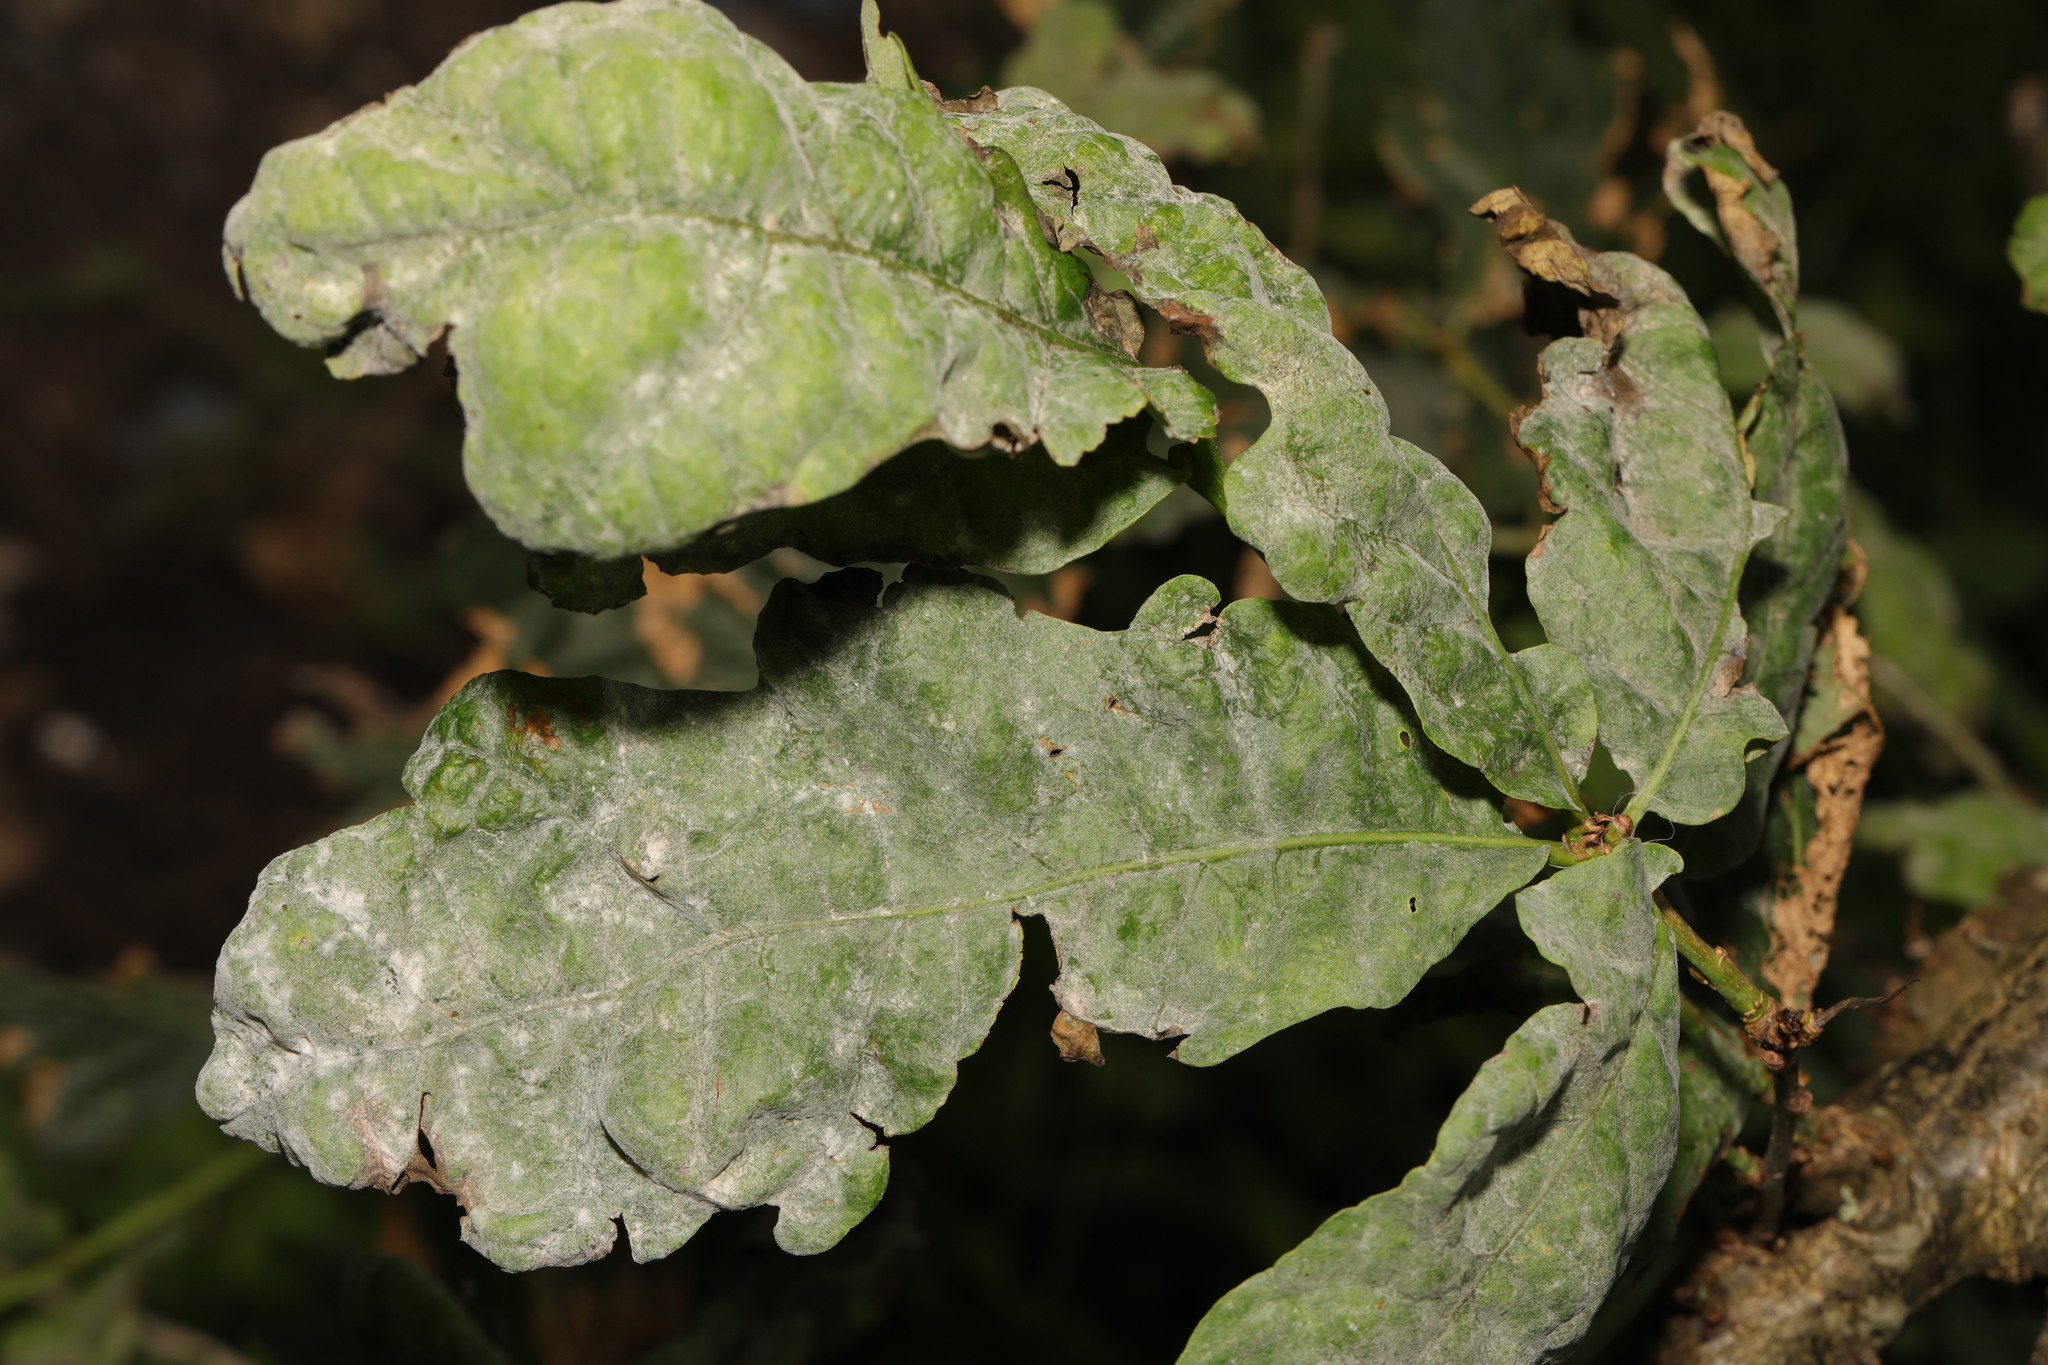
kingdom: Fungi
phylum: Ascomycota
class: Leotiomycetes
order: Helotiales
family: Erysiphaceae
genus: Erysiphe
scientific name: Erysiphe alphitoides
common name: Oak mildew
